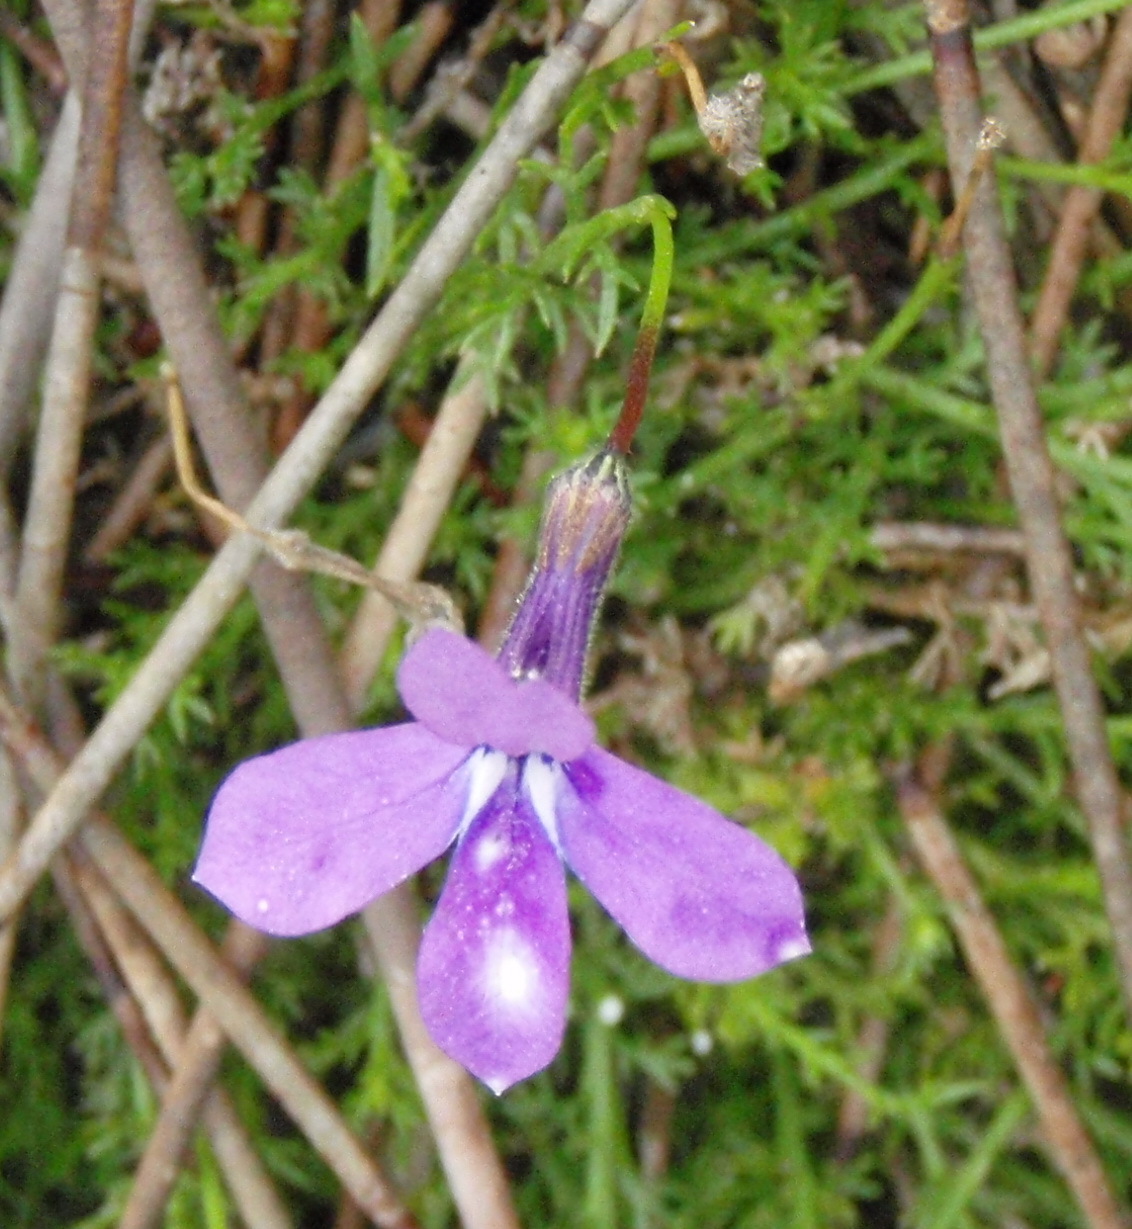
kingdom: Plantae
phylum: Tracheophyta
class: Magnoliopsida
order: Asterales
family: Campanulaceae
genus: Lobelia
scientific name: Lobelia setacea
